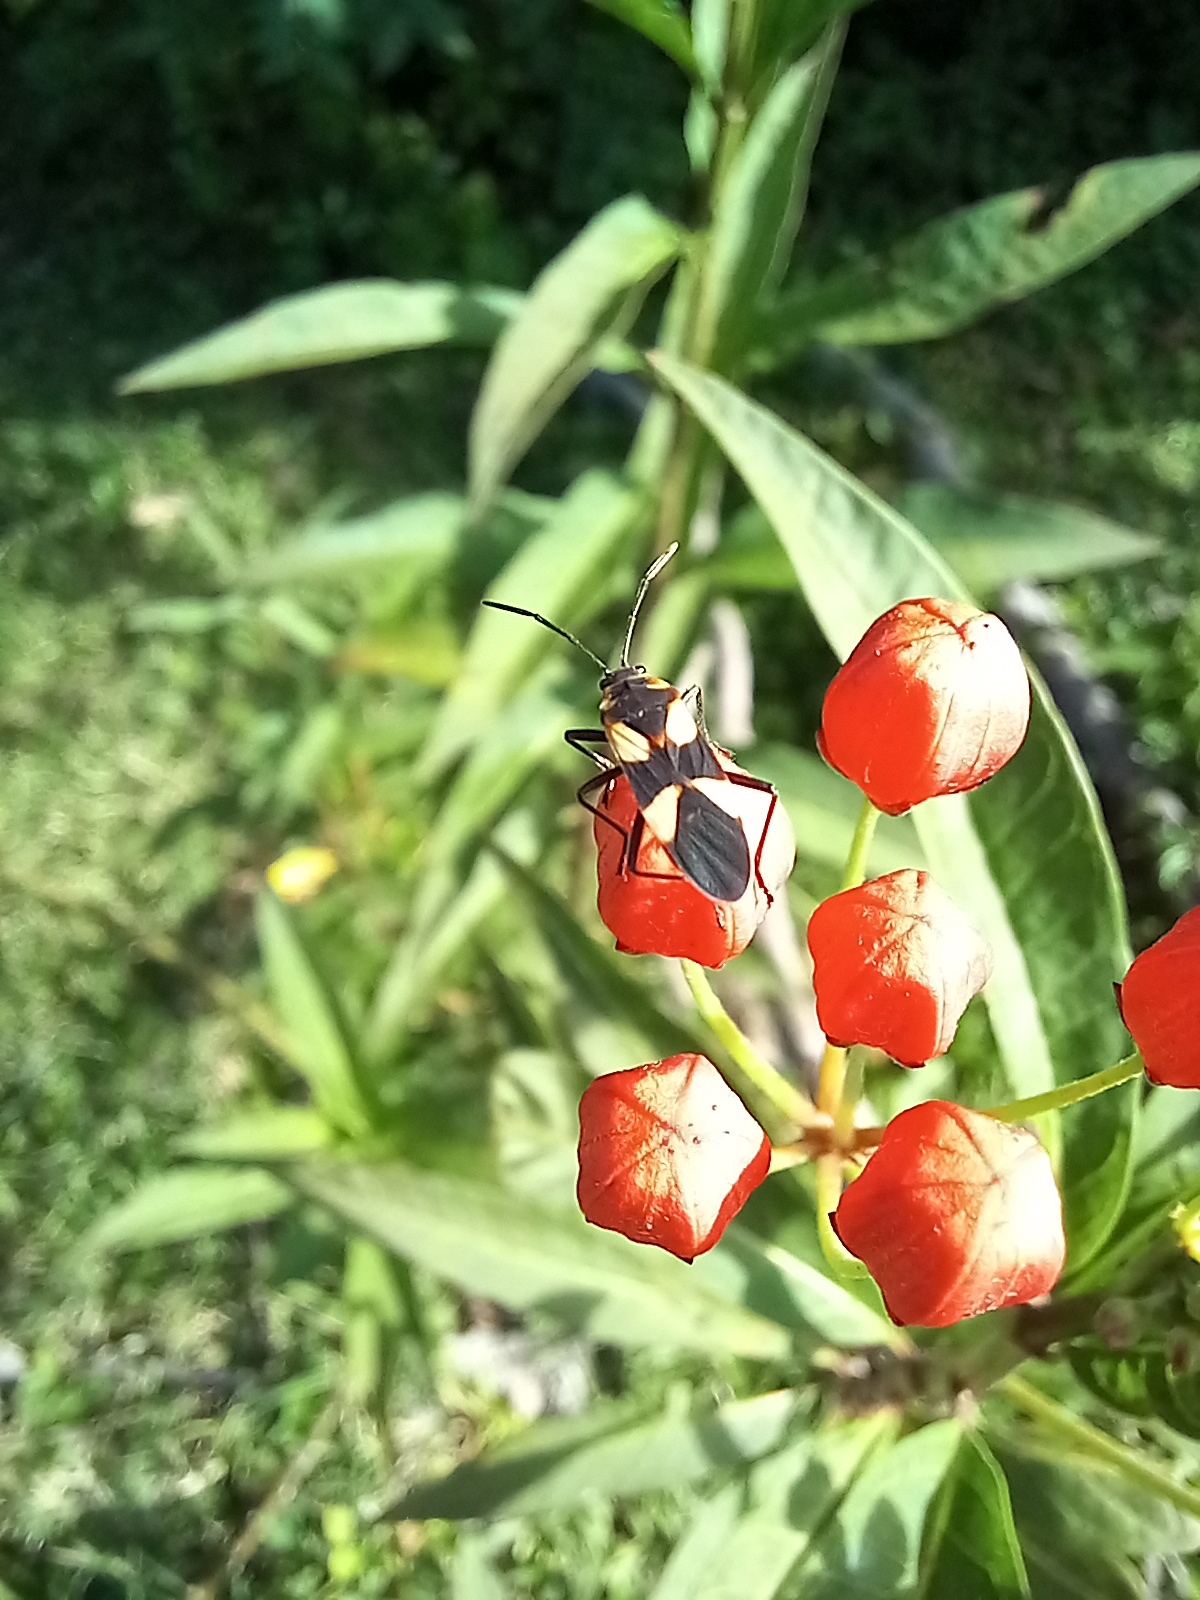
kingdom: Animalia
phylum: Arthropoda
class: Insecta
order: Hemiptera
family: Lygaeidae
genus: Oncopeltus
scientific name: Oncopeltus cingulifer
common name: Lygaeid bug
